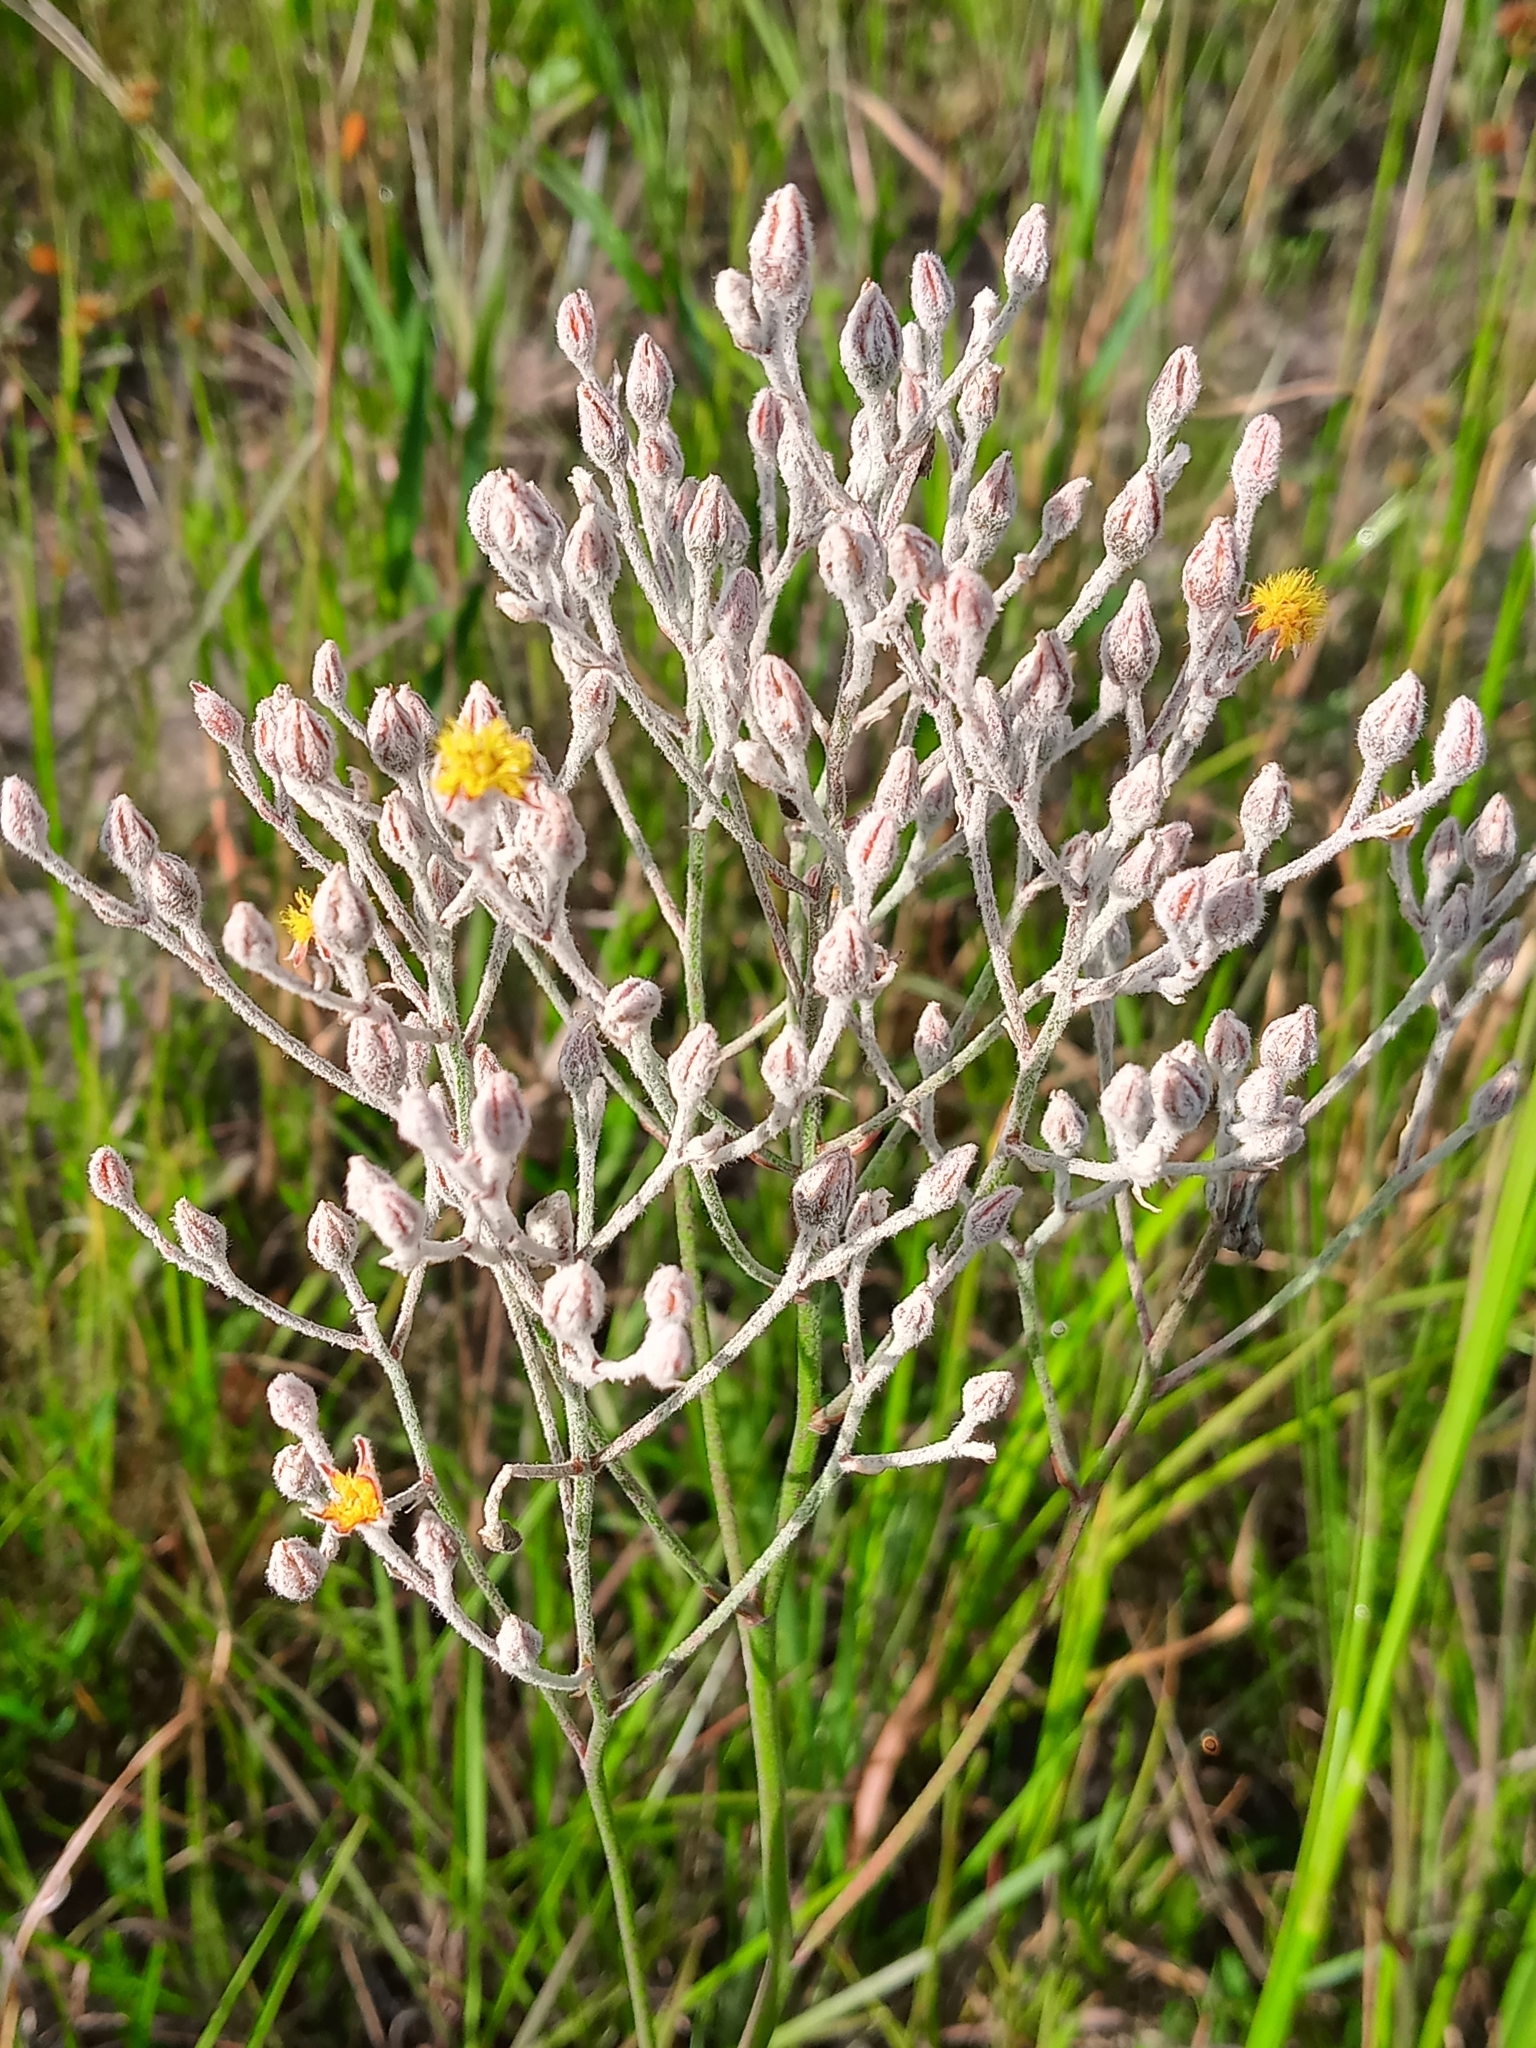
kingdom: Plantae
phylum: Tracheophyta
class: Liliopsida
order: Dioscoreales
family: Nartheciaceae
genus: Lophiola
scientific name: Lophiola aurea
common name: Golden-crest
